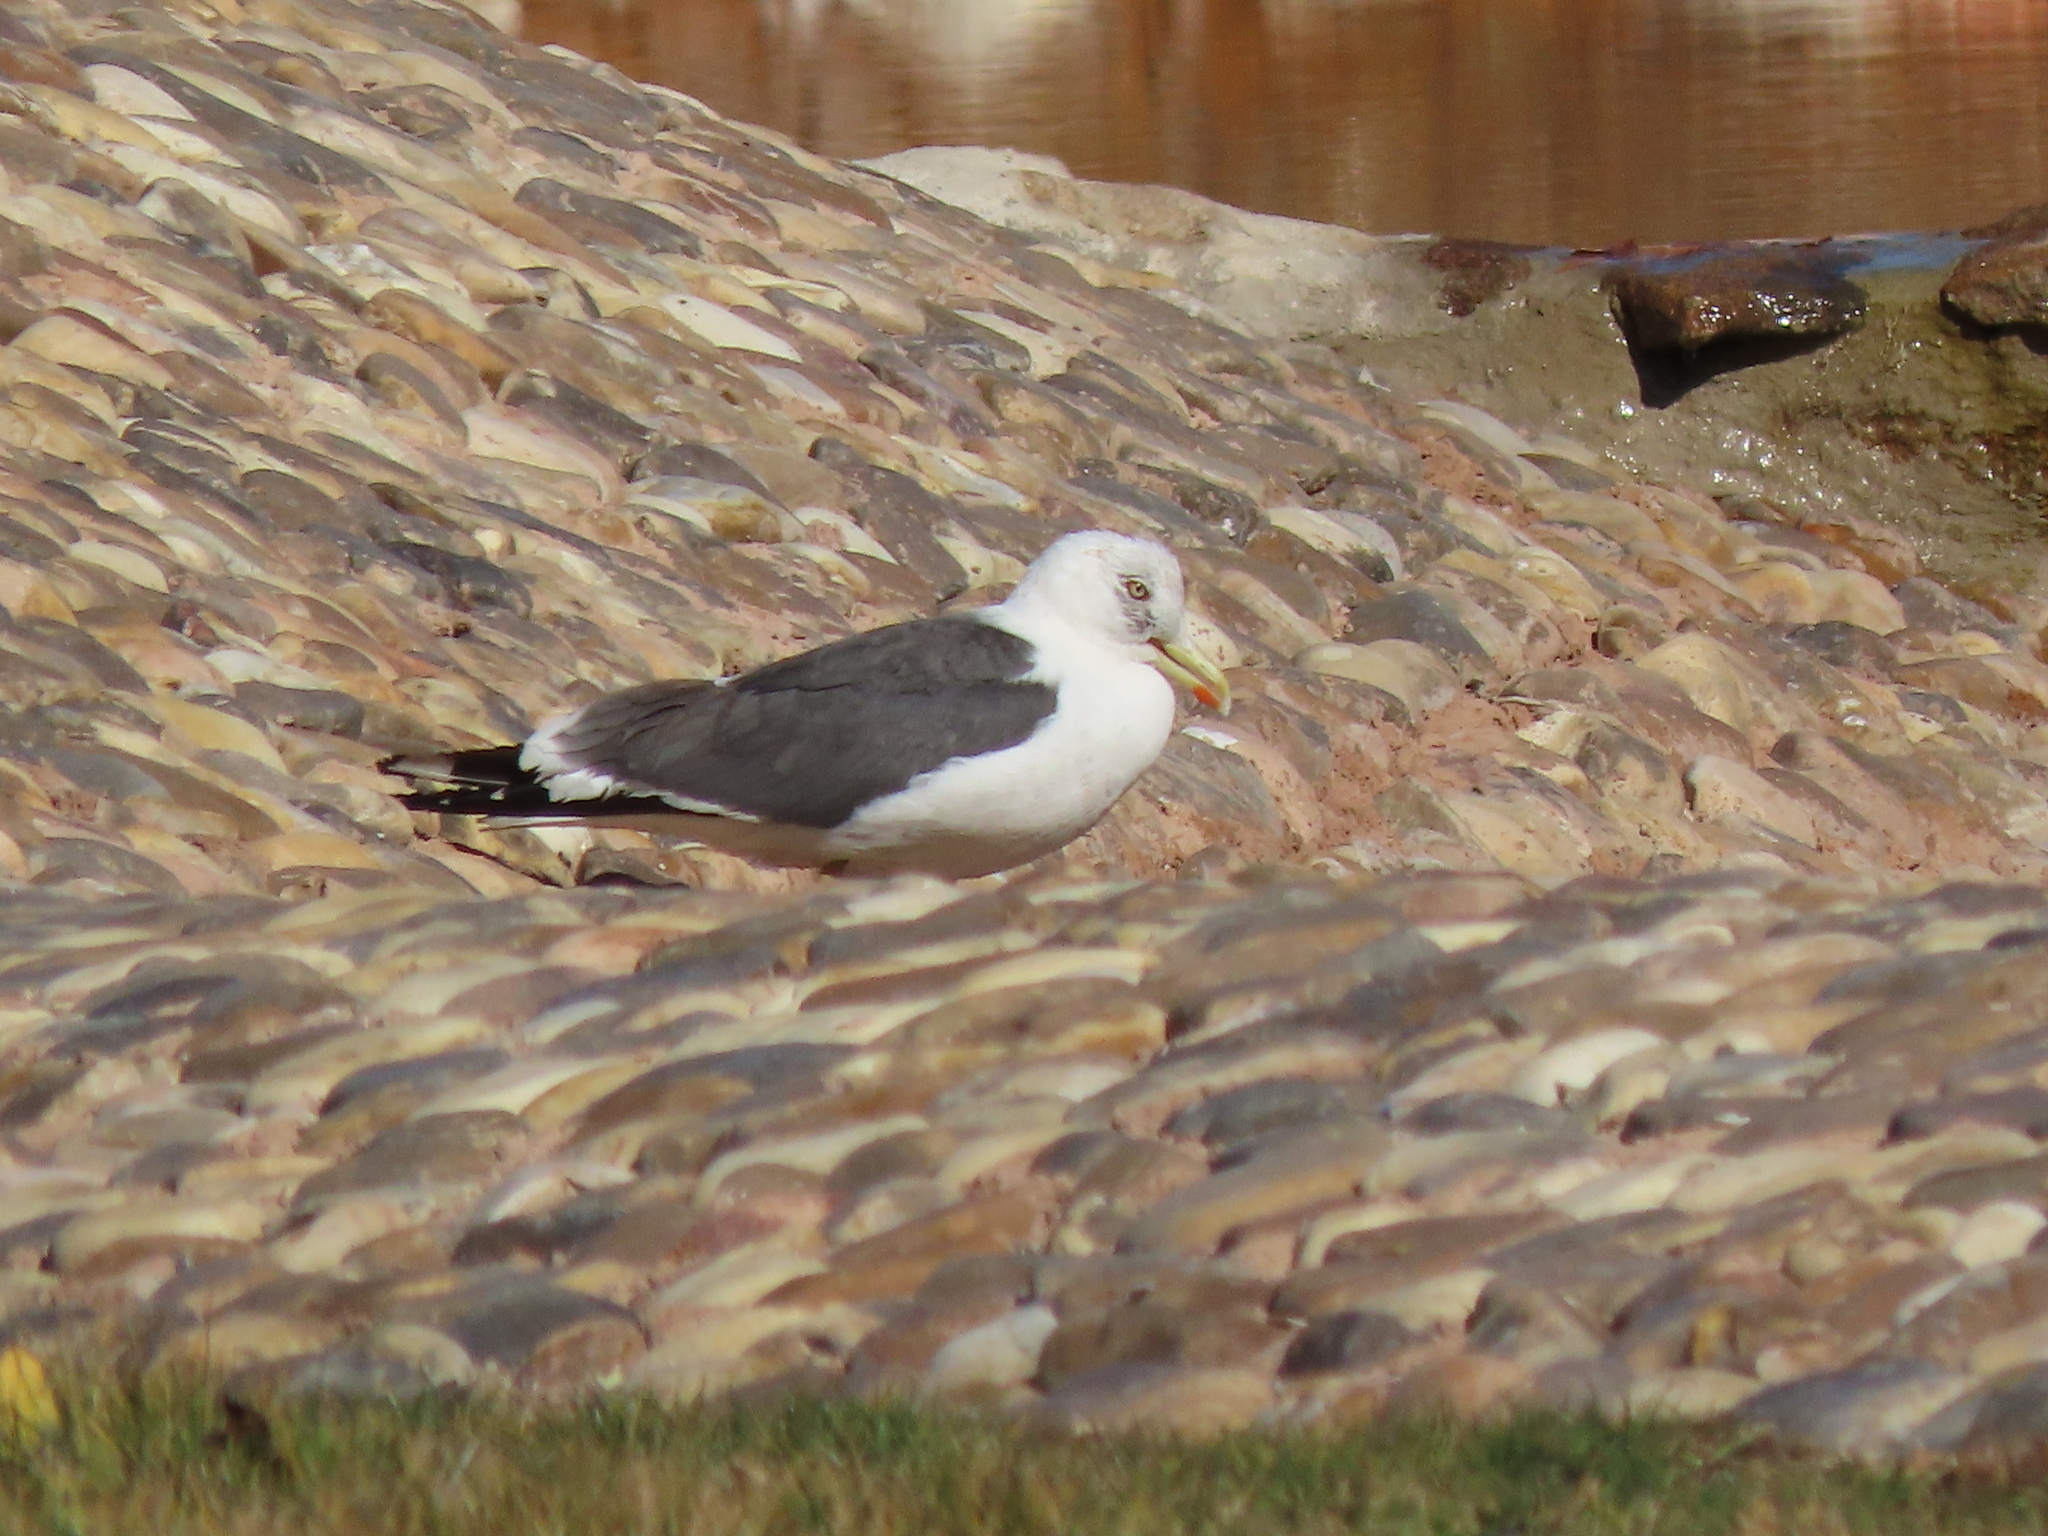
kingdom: Animalia
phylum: Chordata
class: Aves
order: Charadriiformes
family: Laridae
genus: Larus
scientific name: Larus fuscus
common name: Lesser black-backed gull
